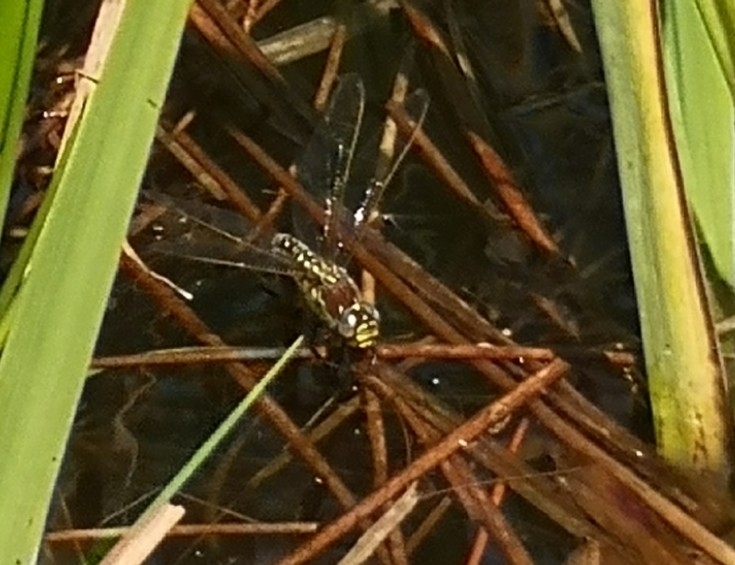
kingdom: Animalia
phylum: Arthropoda
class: Insecta
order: Odonata
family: Aeshnidae
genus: Brachytron
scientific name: Brachytron pratense
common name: Hairy hawker
